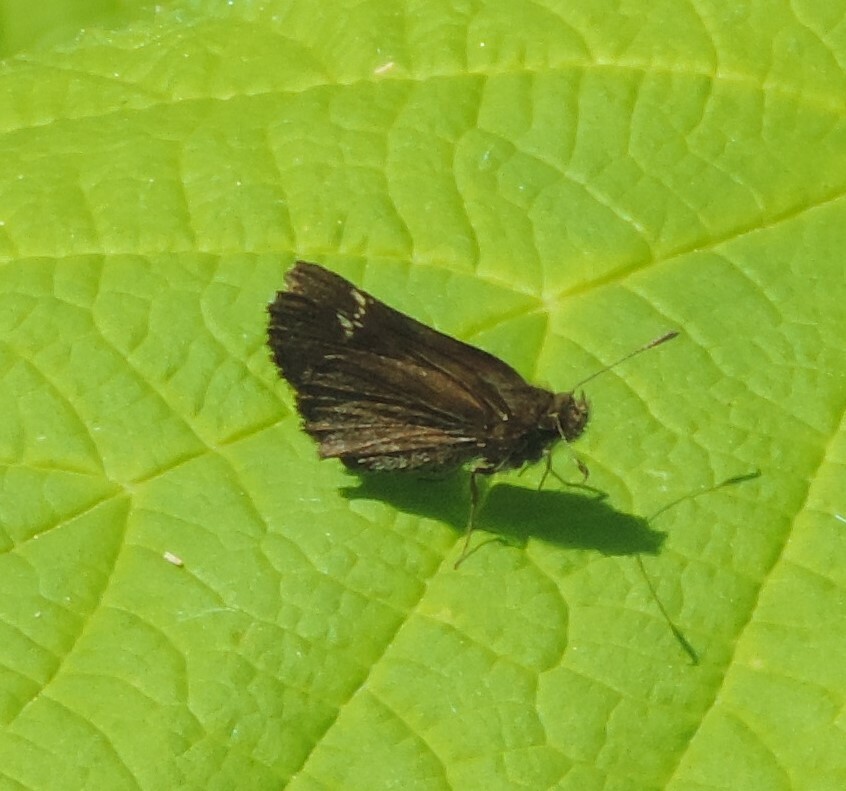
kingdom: Animalia
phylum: Arthropoda
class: Insecta
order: Lepidoptera
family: Hesperiidae
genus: Mastor
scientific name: Mastor vialis
